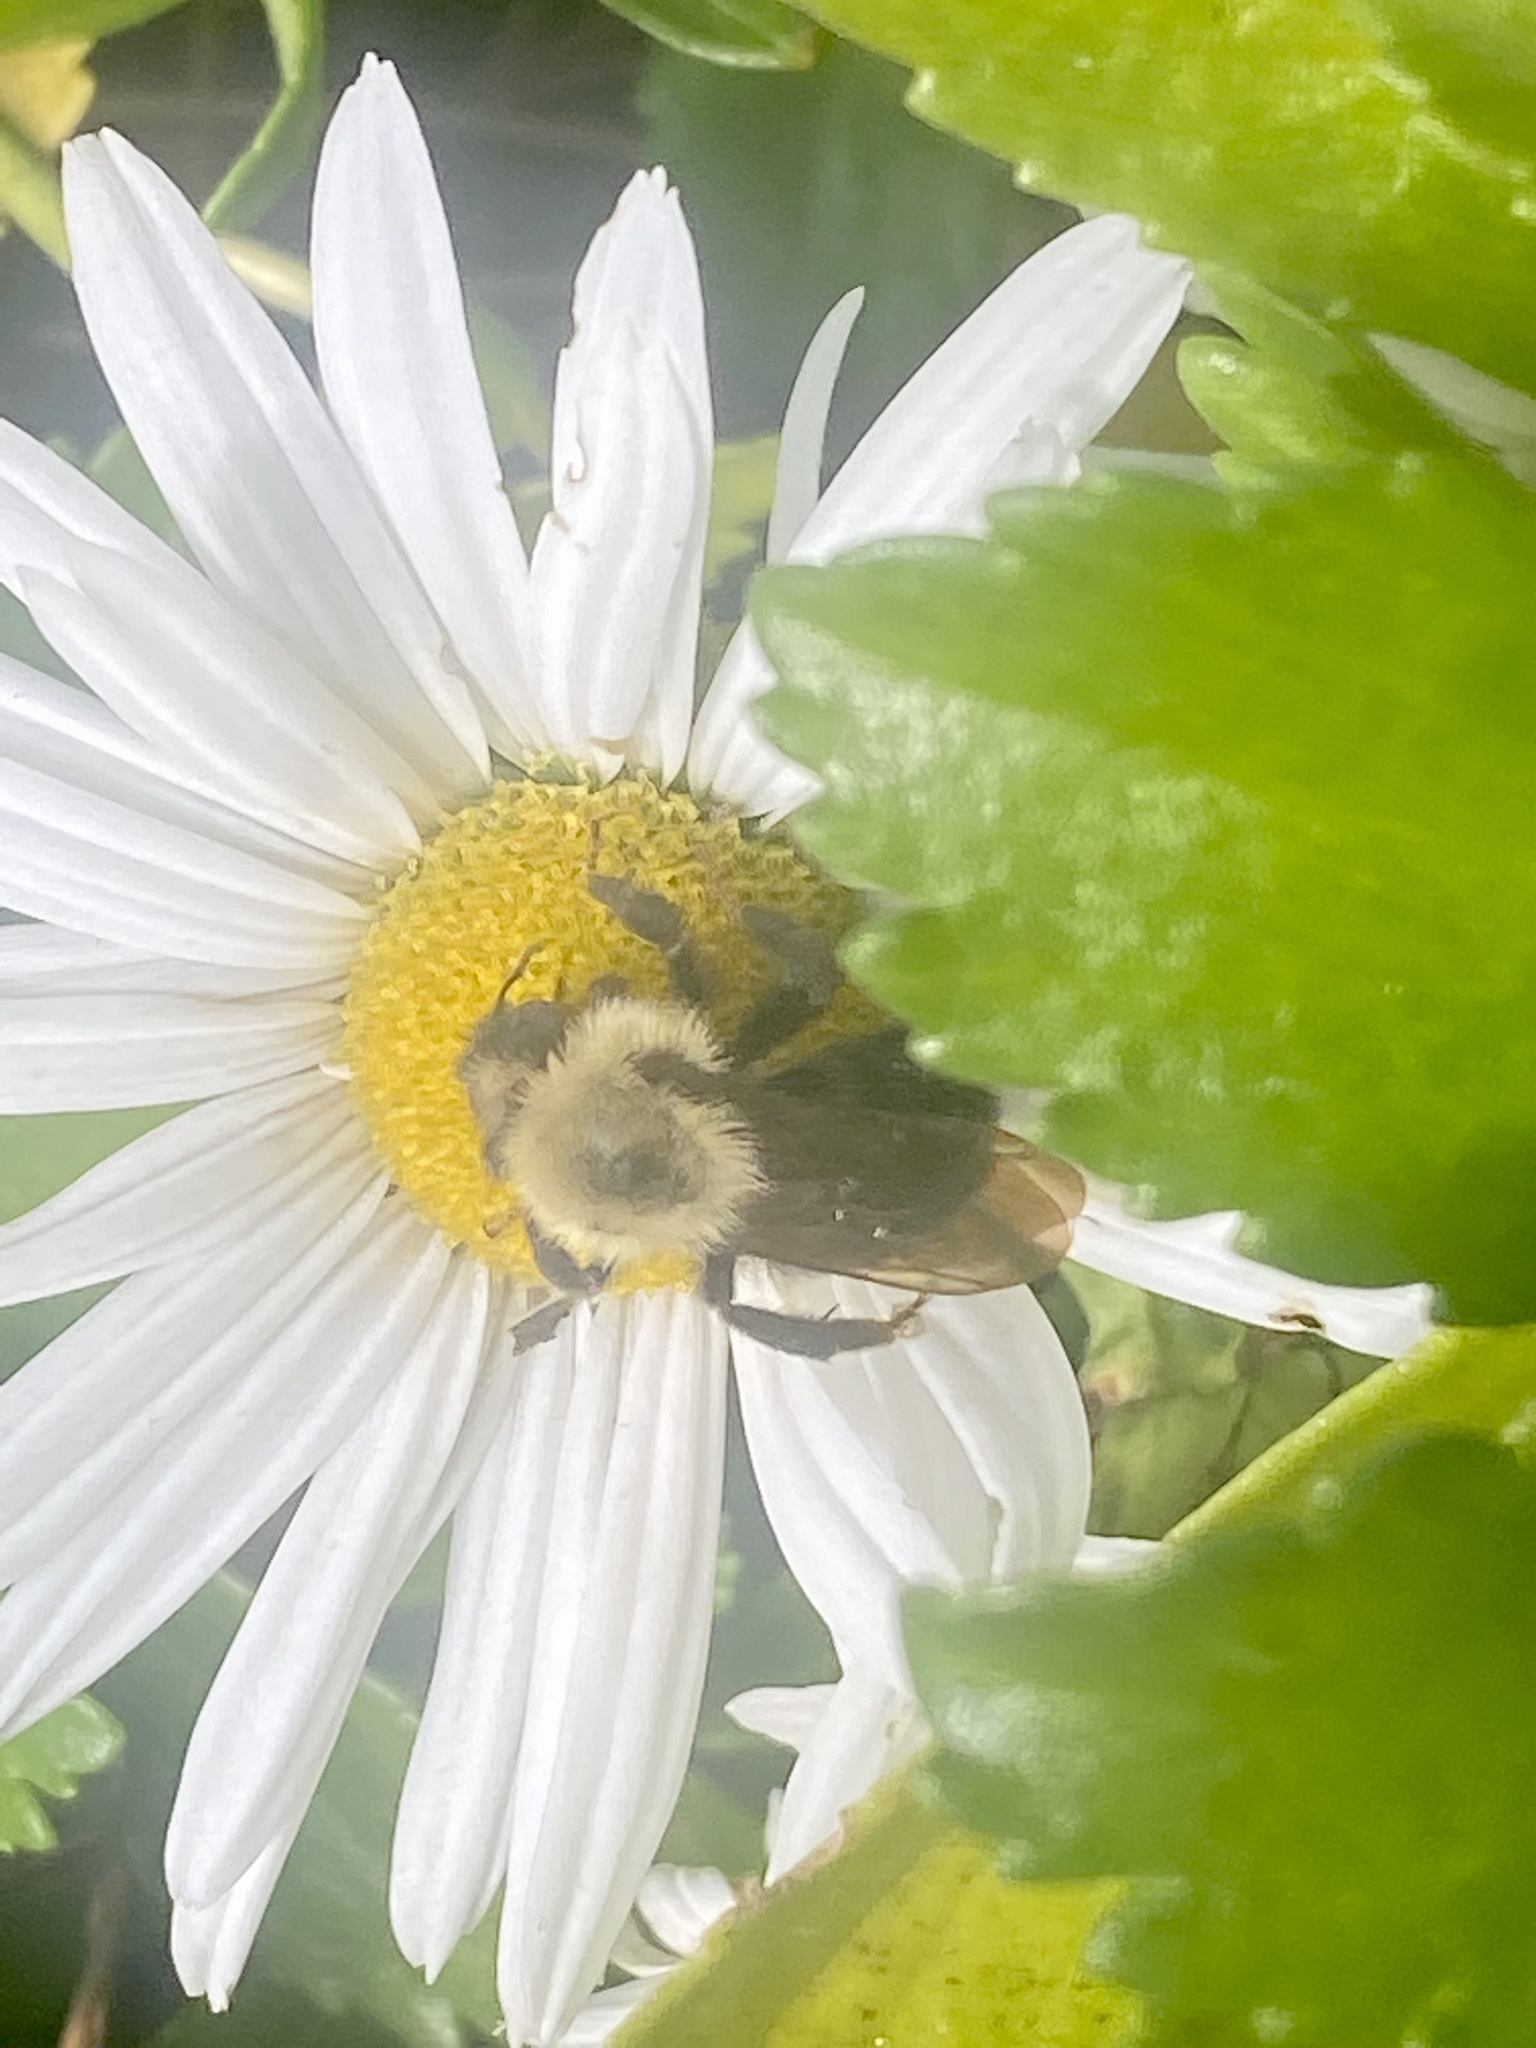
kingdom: Animalia
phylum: Arthropoda
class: Insecta
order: Hymenoptera
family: Apidae
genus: Bombus
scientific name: Bombus citrinus
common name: Lemon cuckoo bumble bee
